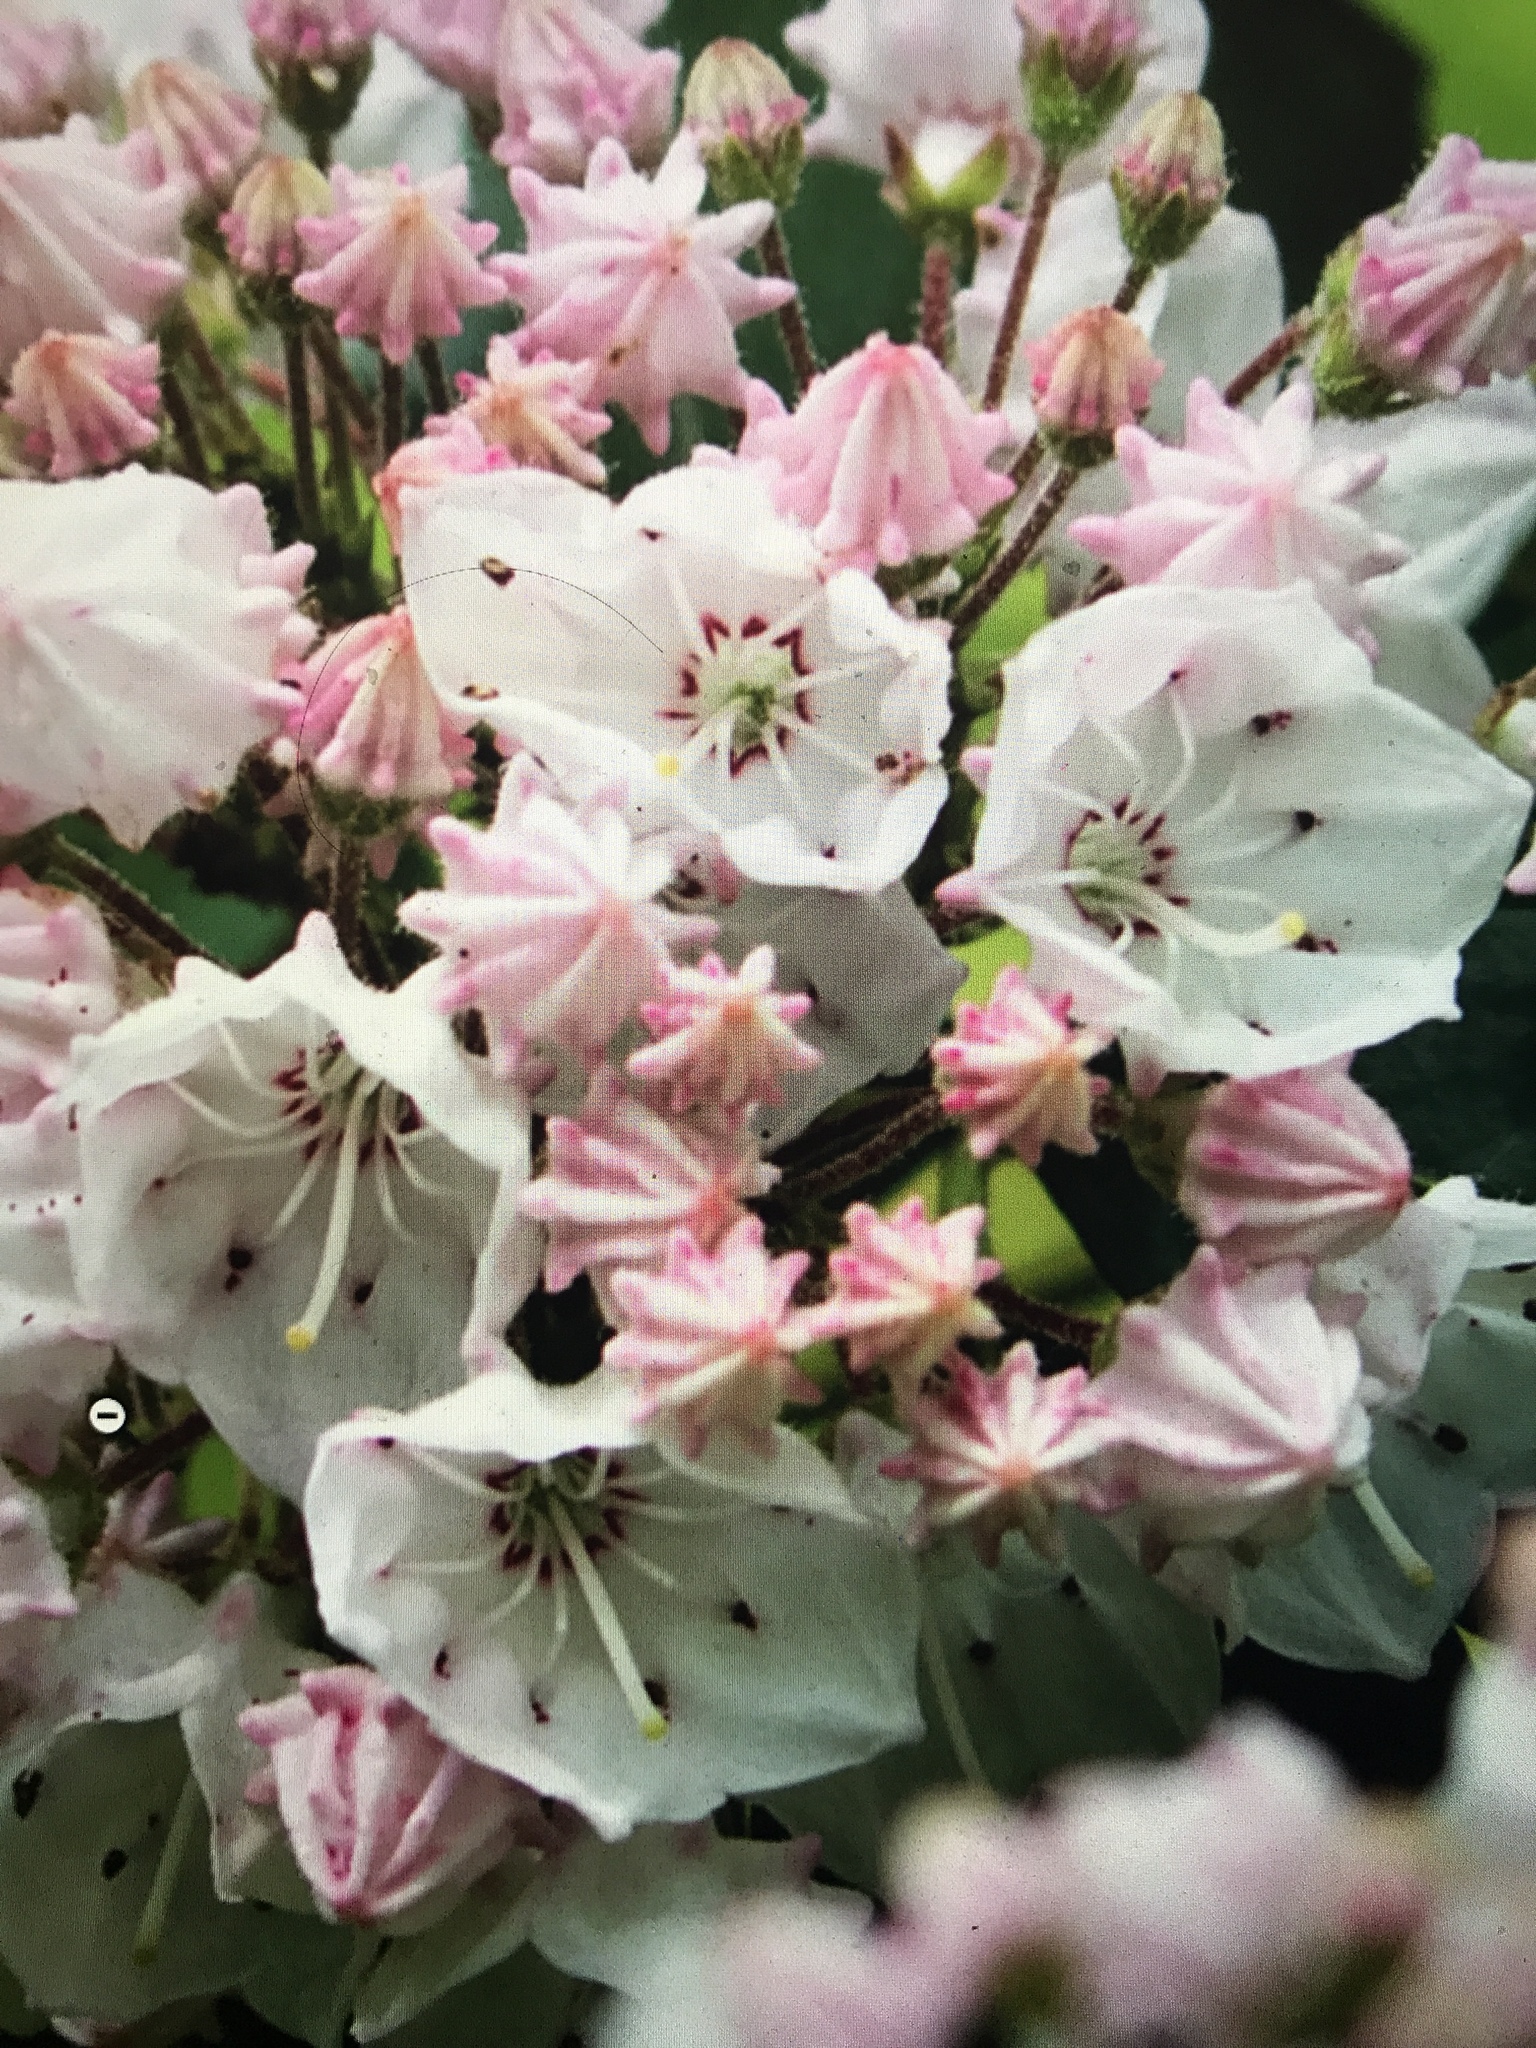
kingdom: Plantae
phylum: Tracheophyta
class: Magnoliopsida
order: Ericales
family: Ericaceae
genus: Kalmia
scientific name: Kalmia latifolia
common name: Mountain-laurel
